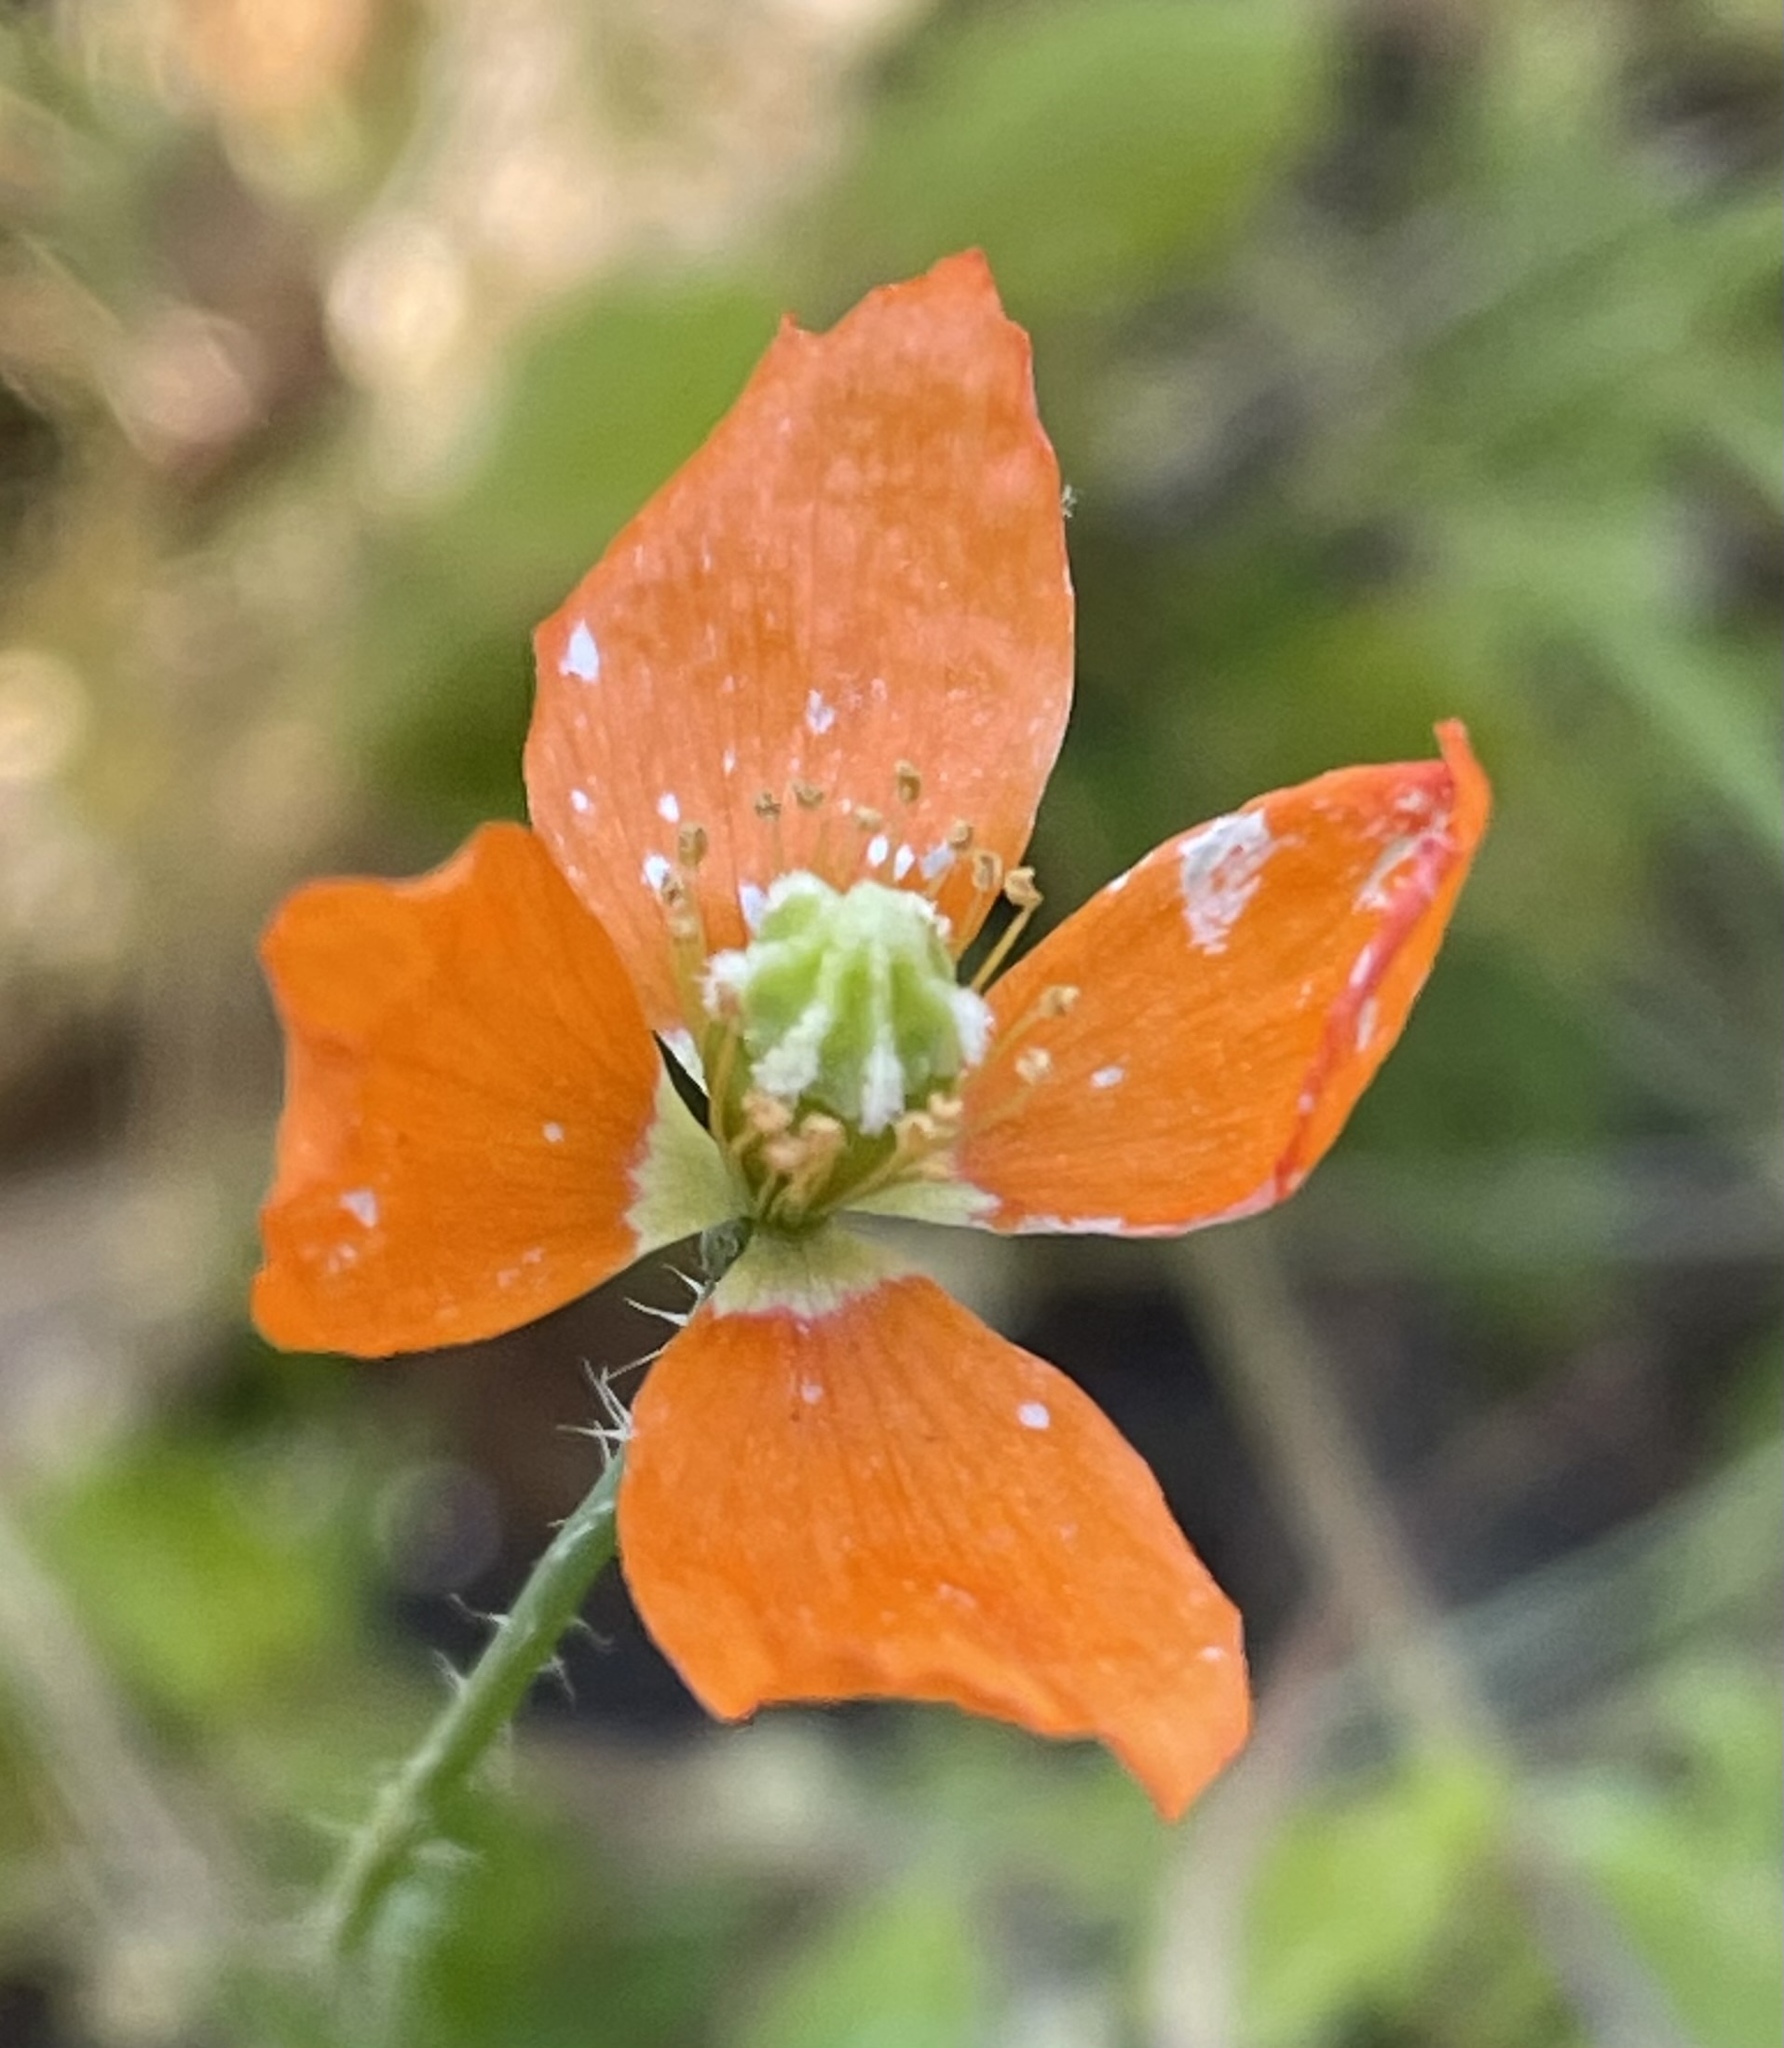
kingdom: Plantae
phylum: Tracheophyta
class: Magnoliopsida
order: Ranunculales
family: Papaveraceae
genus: Papaver
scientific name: Papaver californicum
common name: Fire poppy
